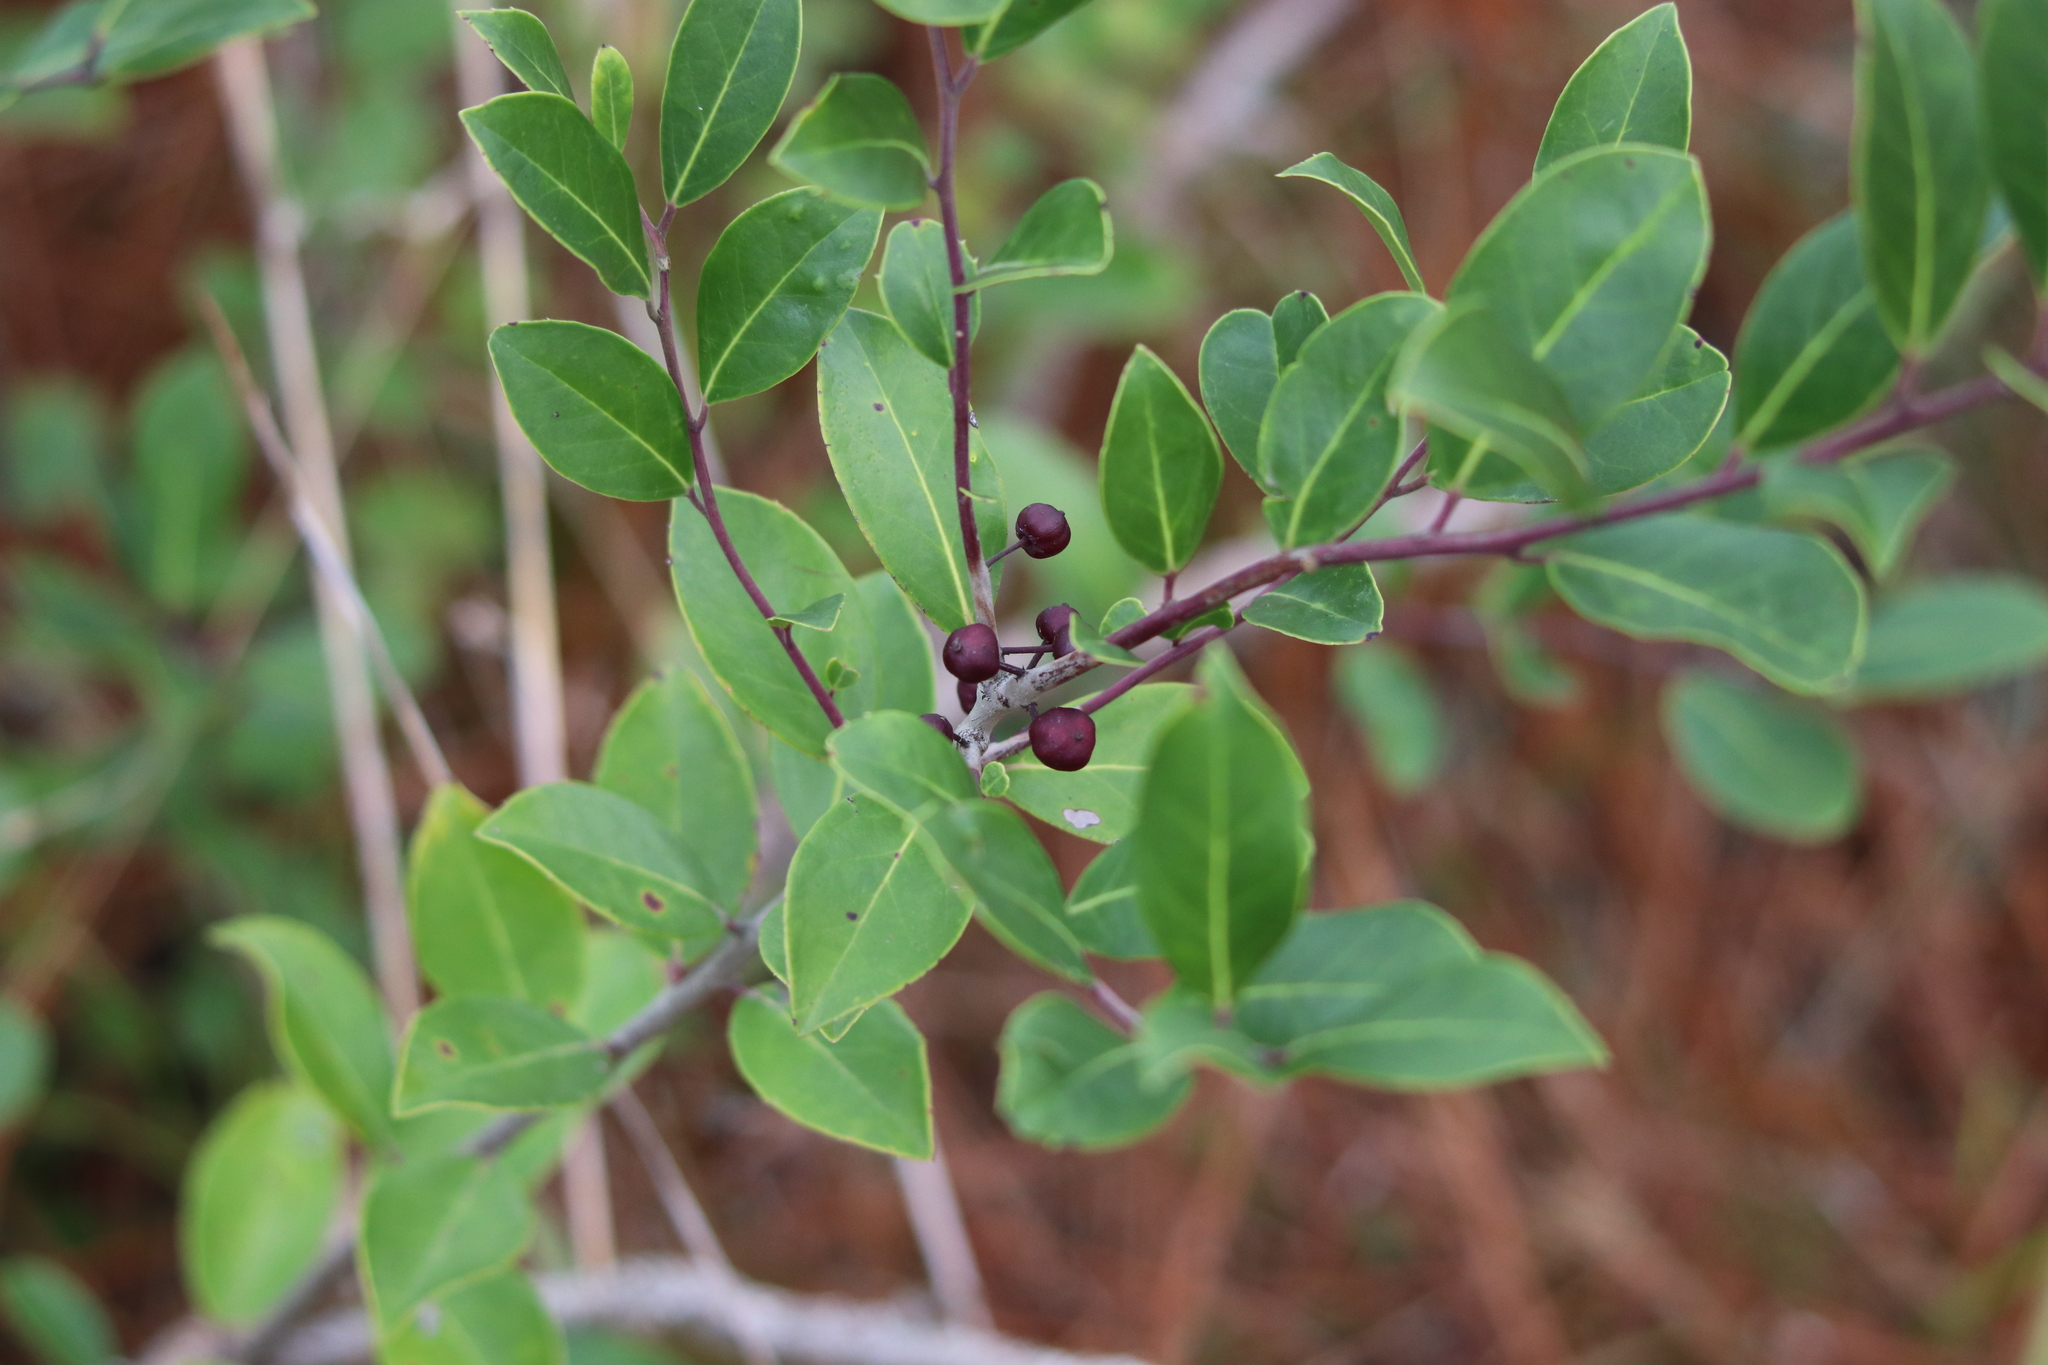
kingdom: Plantae
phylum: Tracheophyta
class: Magnoliopsida
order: Aquifoliales
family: Aquifoliaceae
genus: Ilex
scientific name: Ilex coriacea
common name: Sweet gallberry
